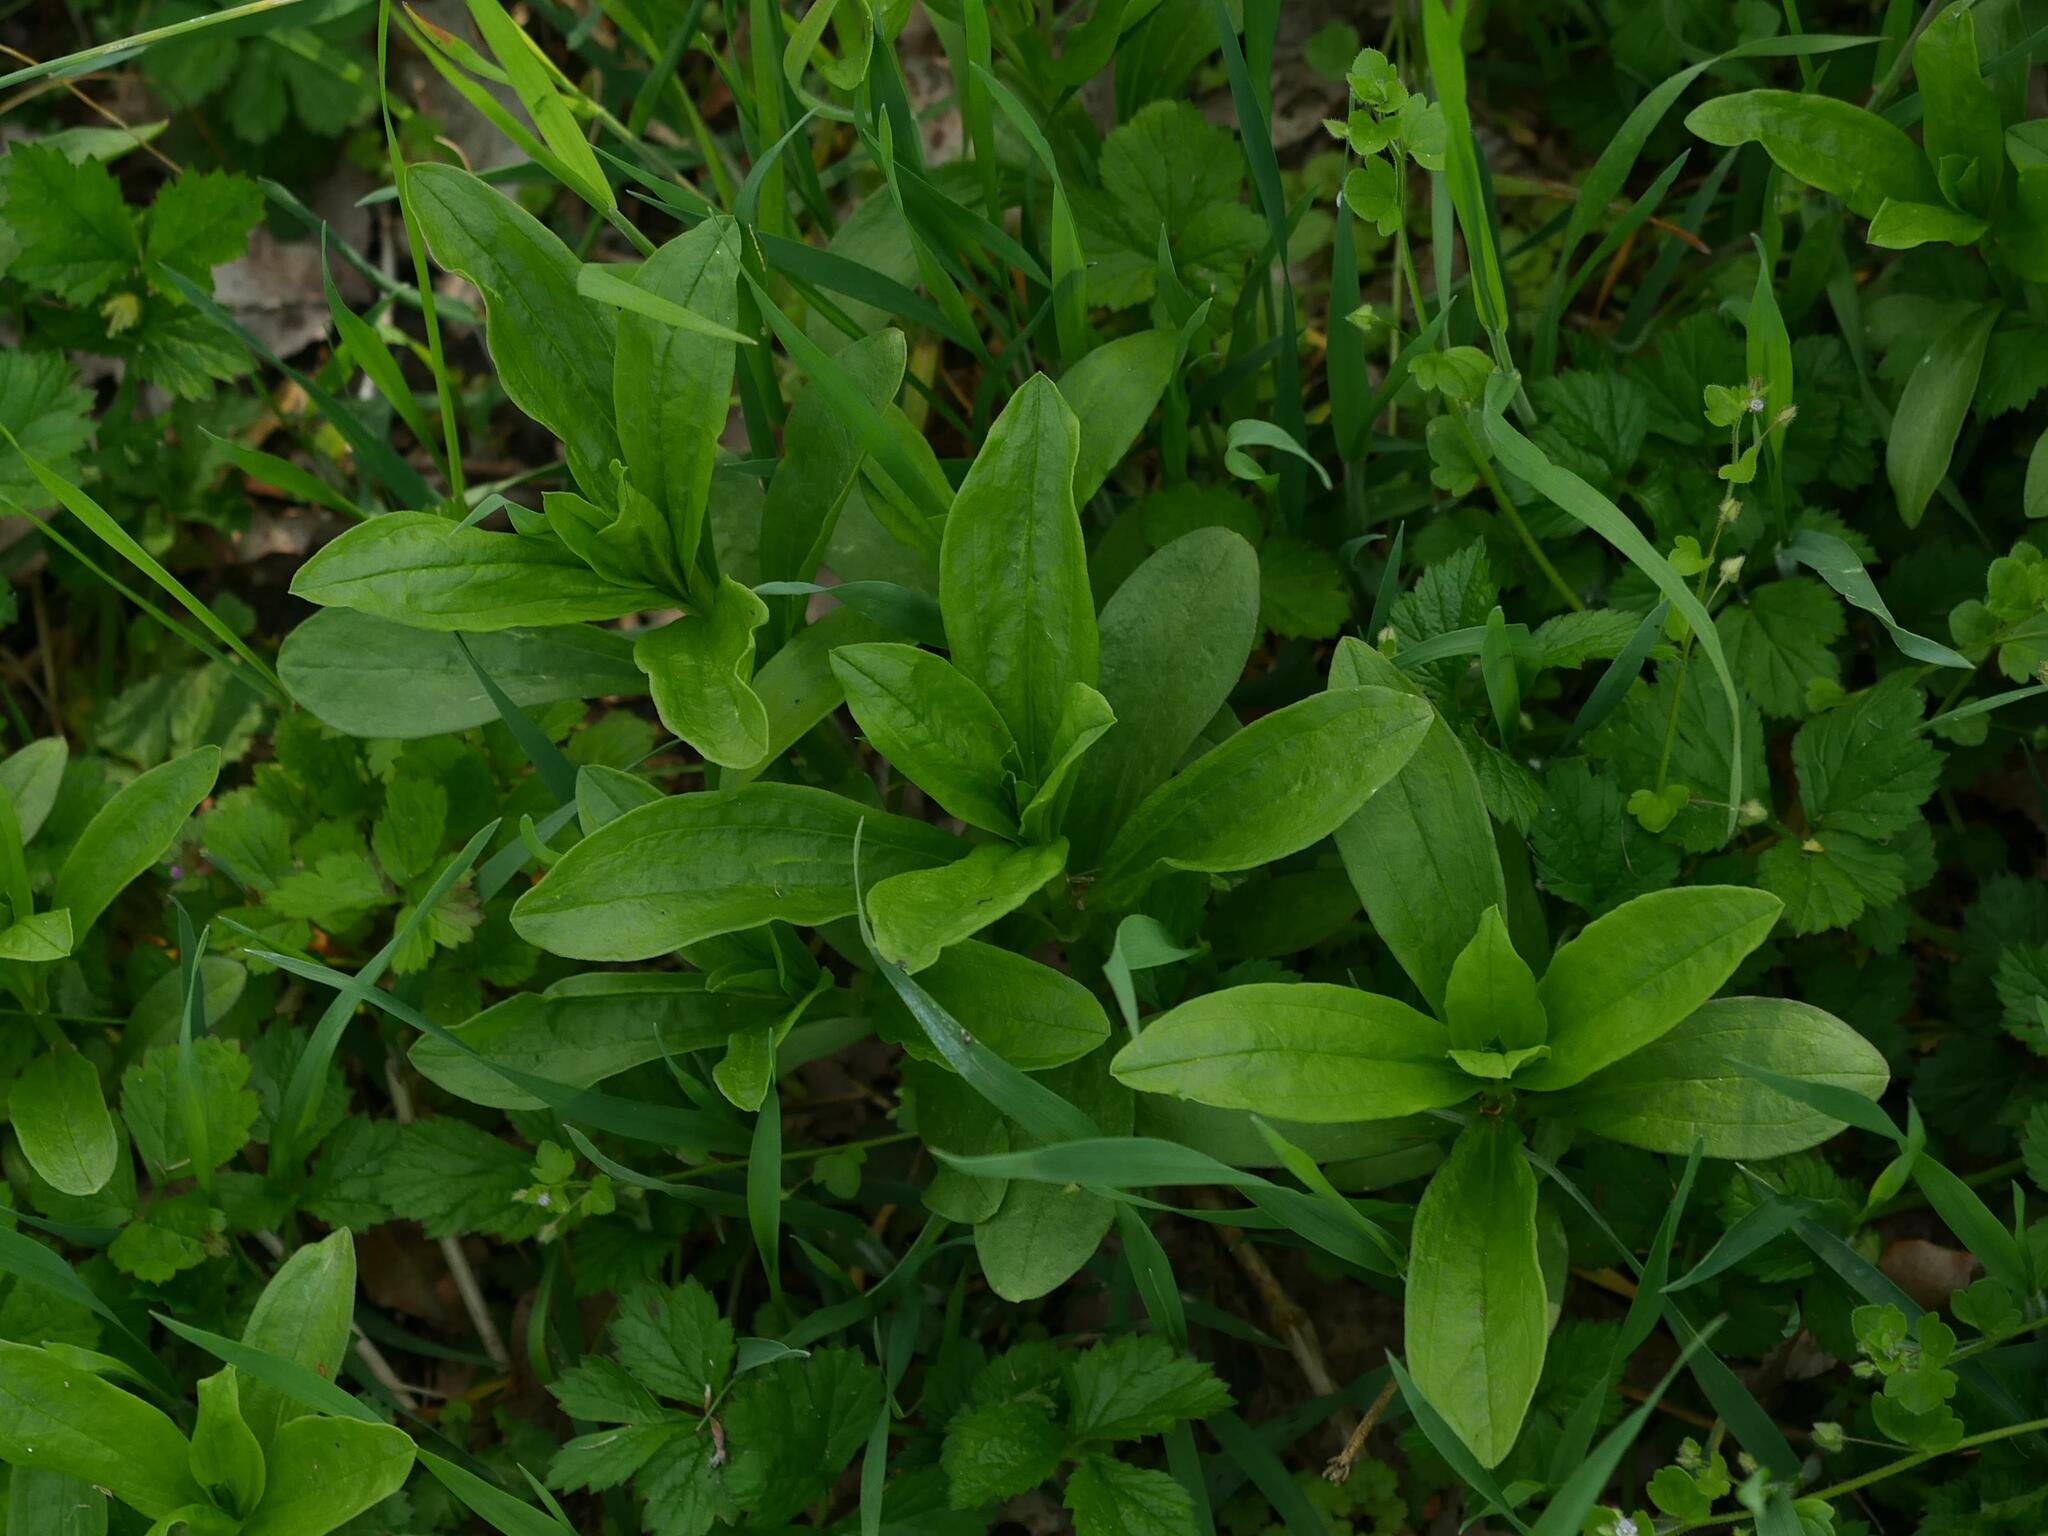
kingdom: Plantae
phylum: Tracheophyta
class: Magnoliopsida
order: Caryophyllales
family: Caryophyllaceae
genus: Saponaria
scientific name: Saponaria officinalis
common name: Soapwort
